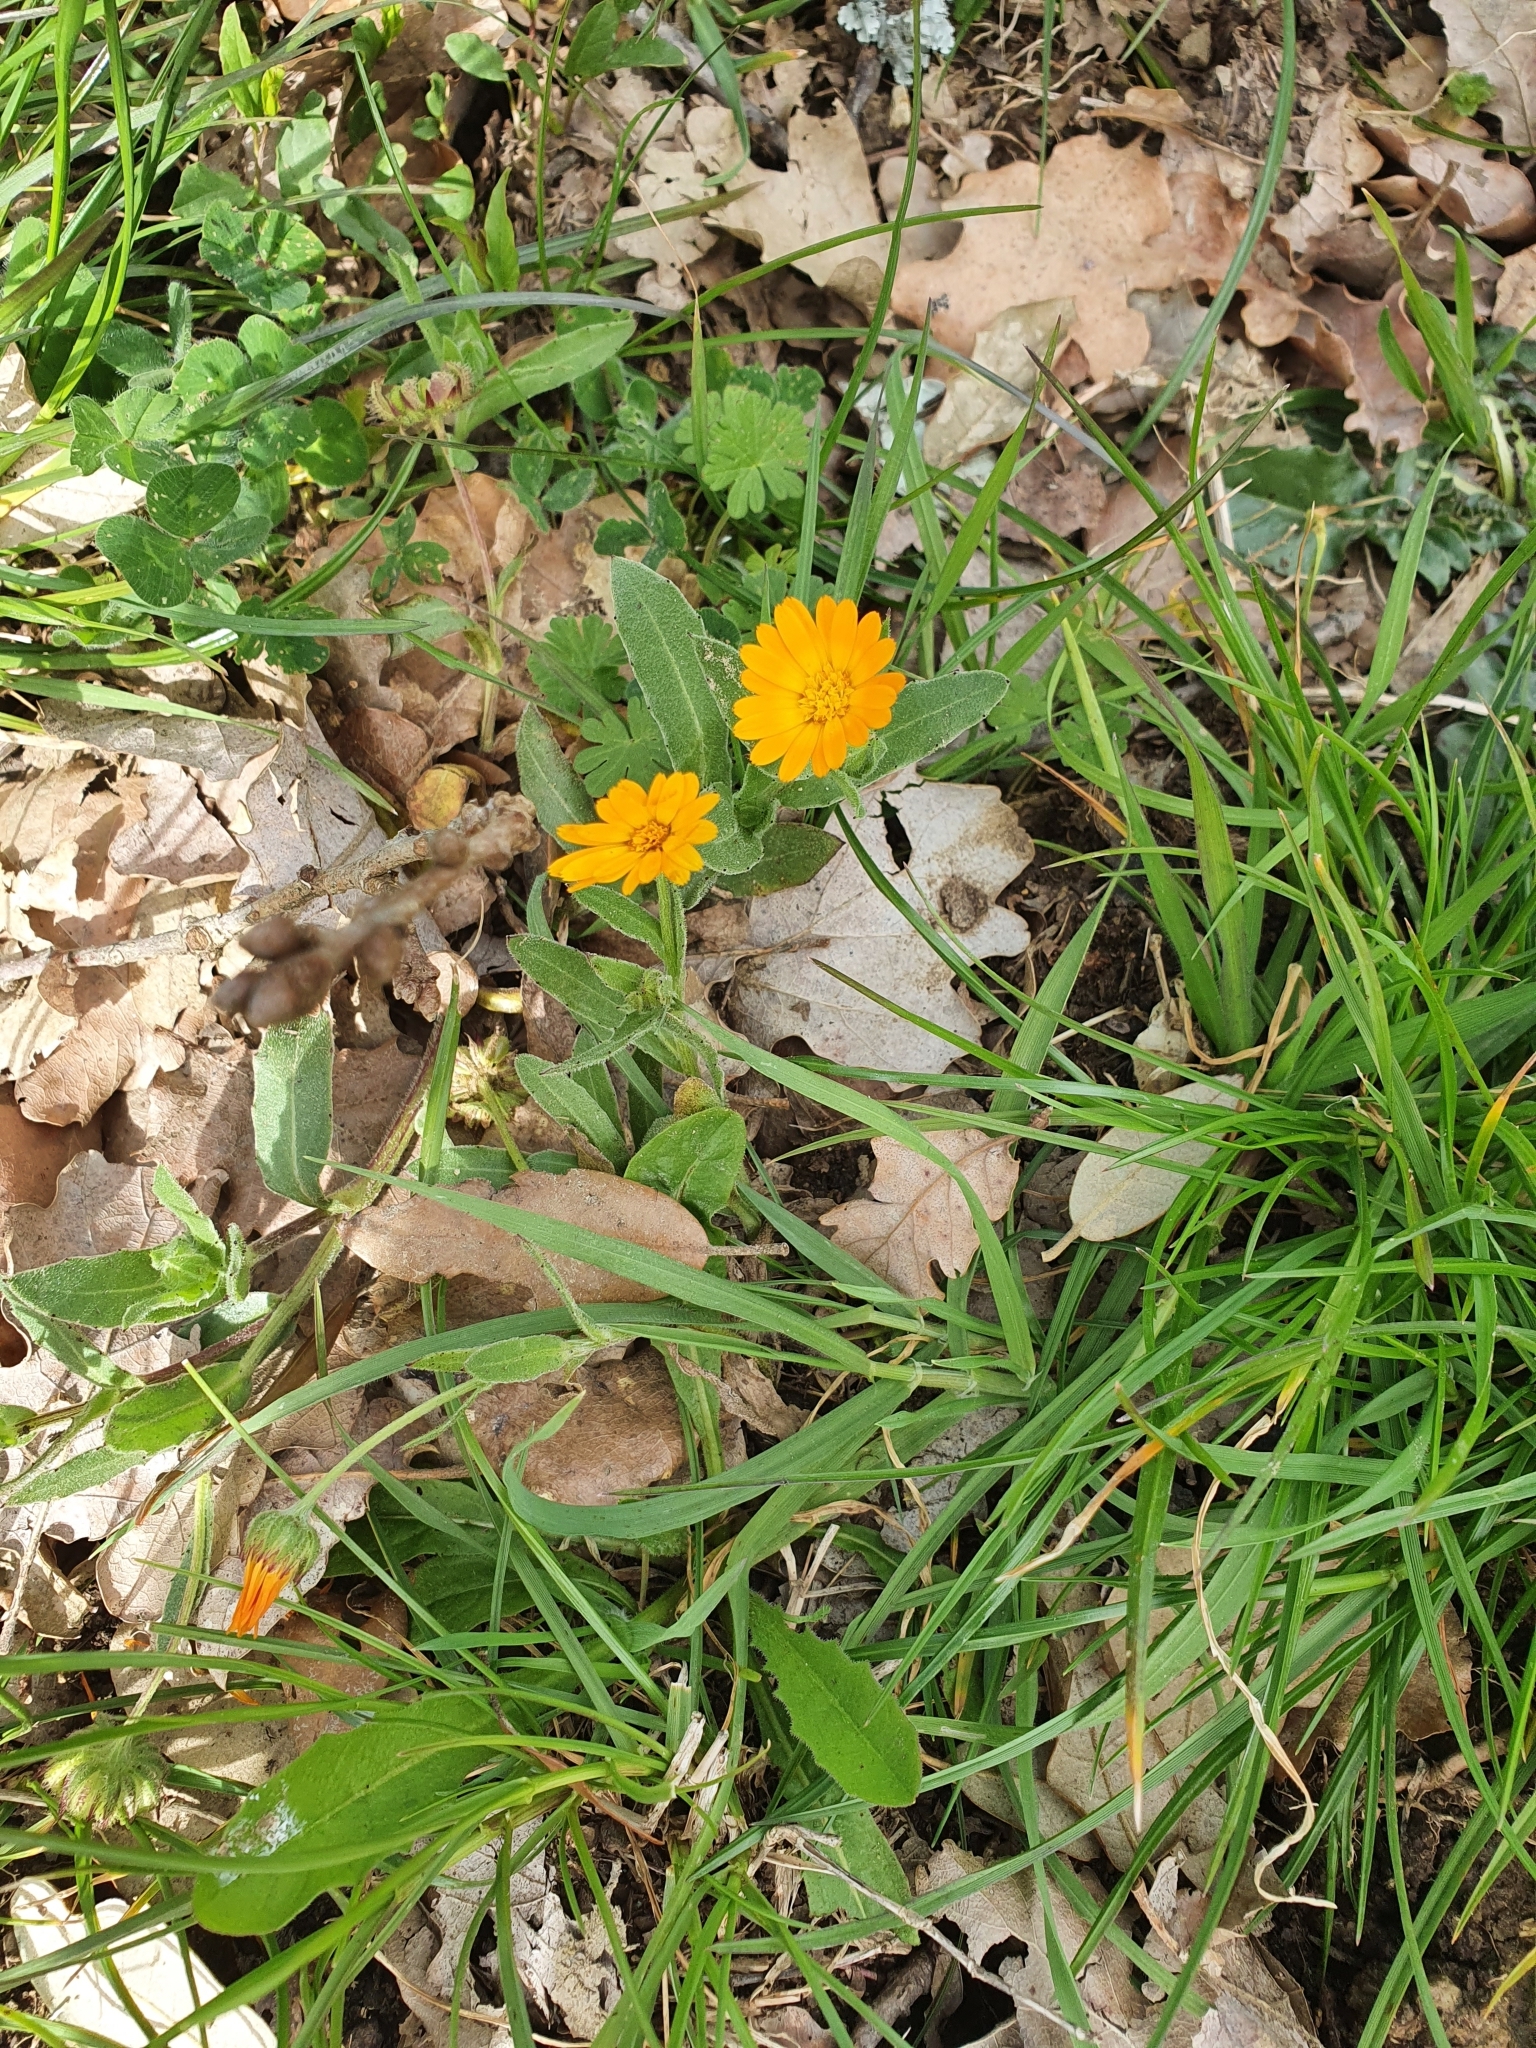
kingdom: Plantae
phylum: Tracheophyta
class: Magnoliopsida
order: Asterales
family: Asteraceae
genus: Calendula
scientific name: Calendula arvensis
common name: Field marigold
